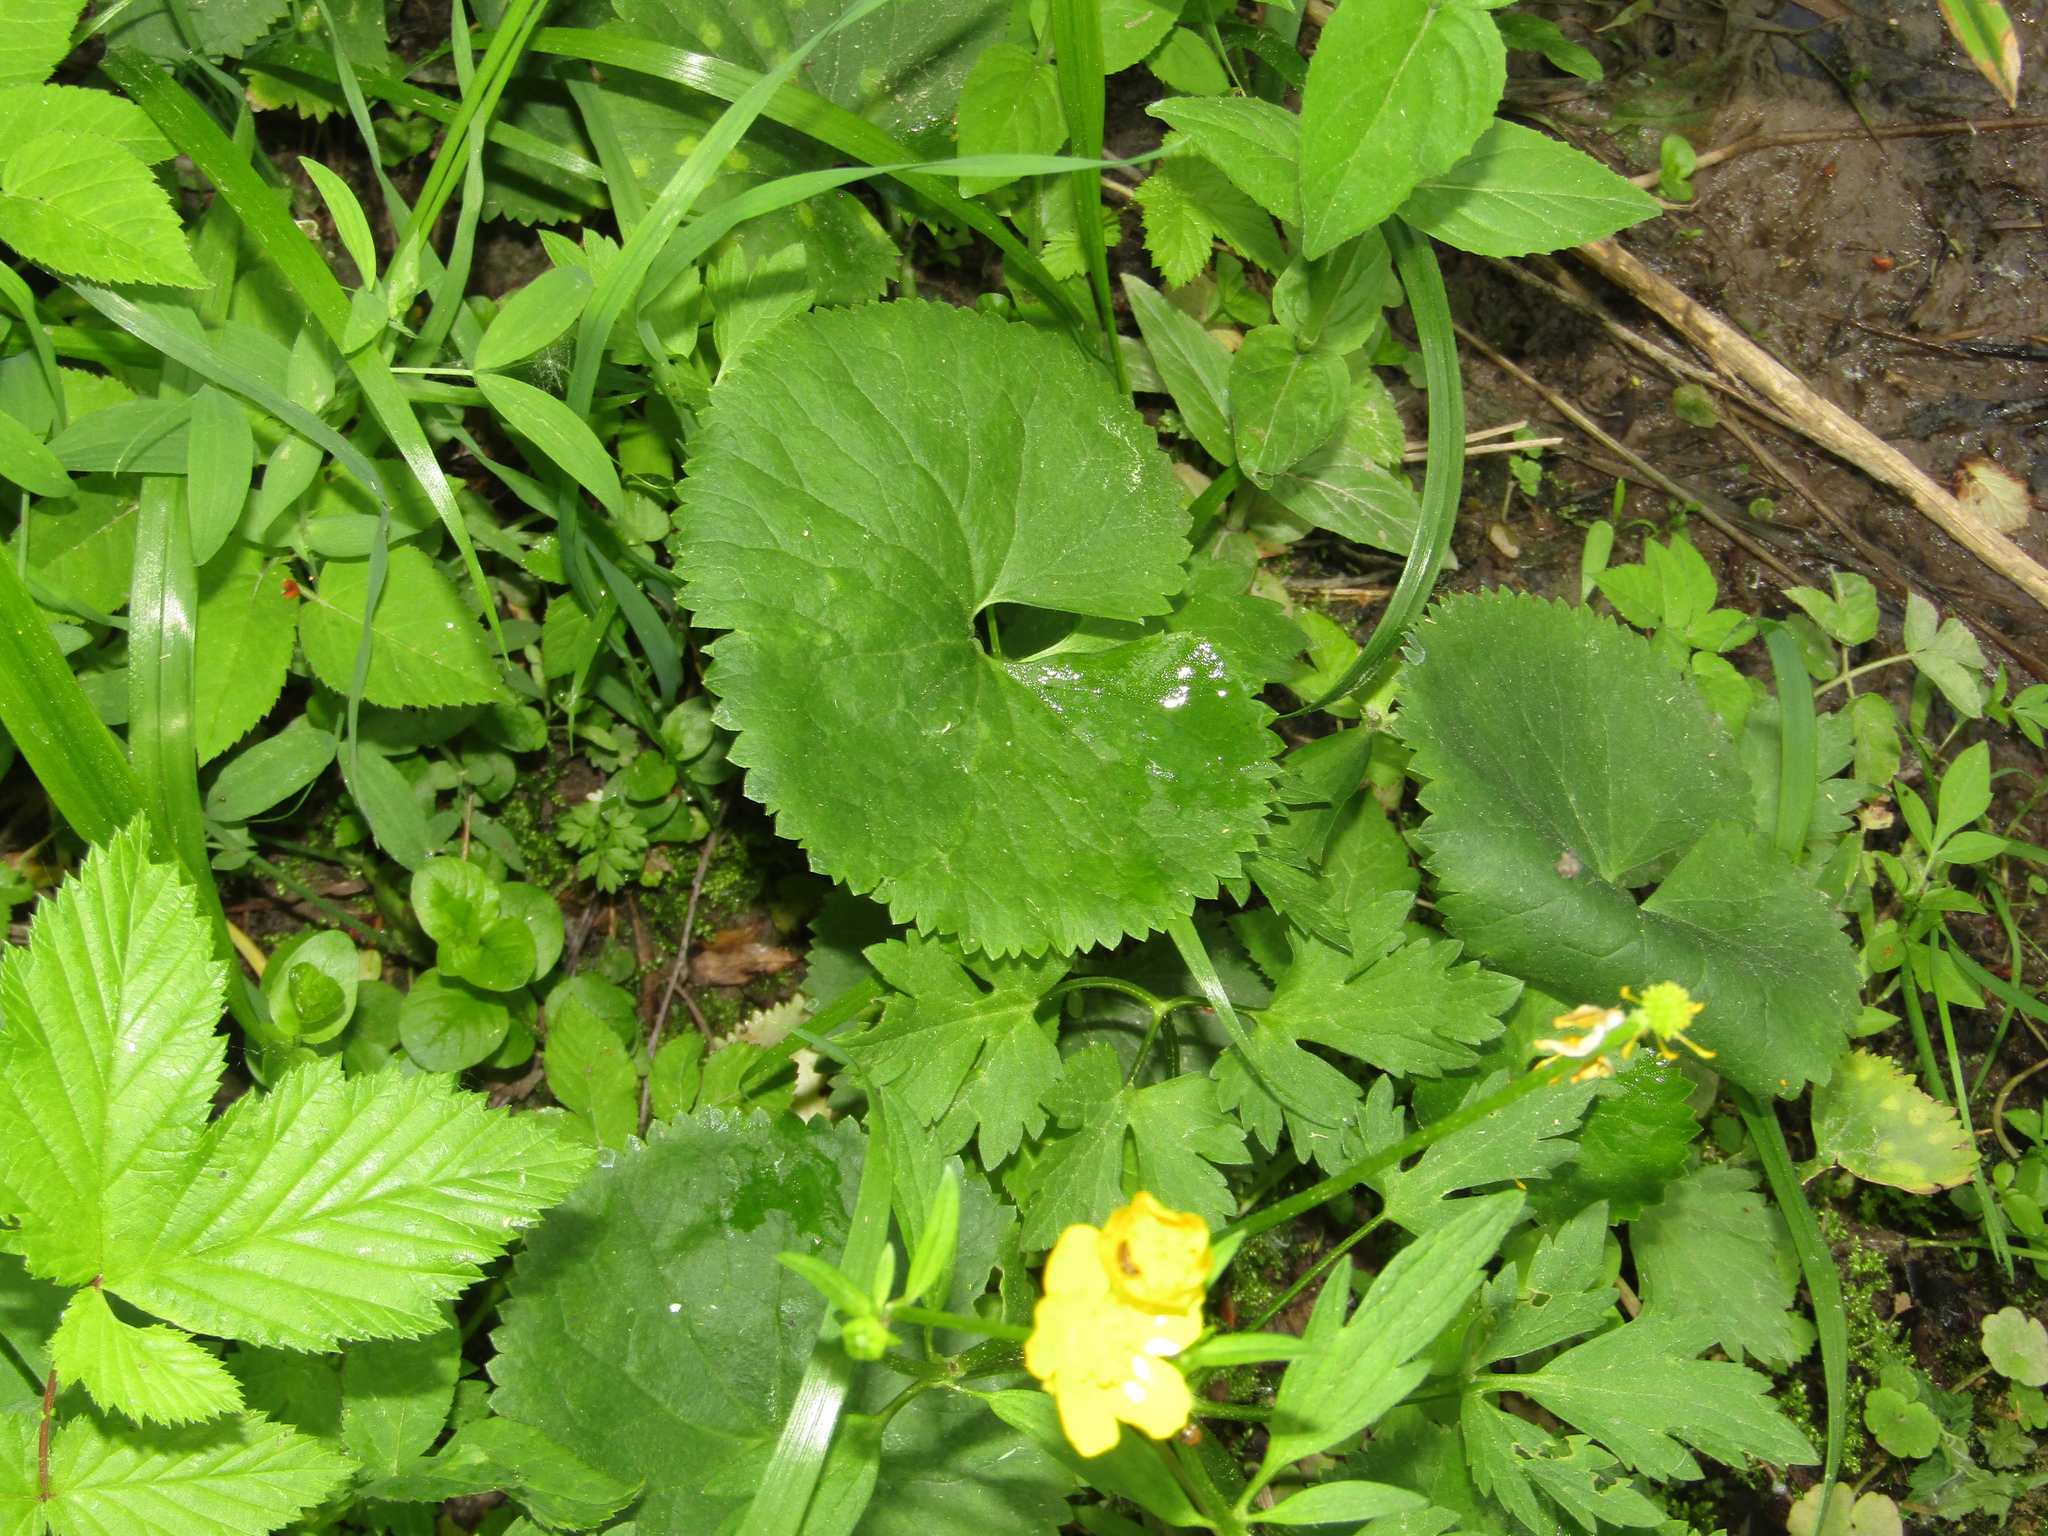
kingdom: Plantae
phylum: Tracheophyta
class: Magnoliopsida
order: Ranunculales
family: Ranunculaceae
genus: Ranunculus
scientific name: Ranunculus cassubicus
